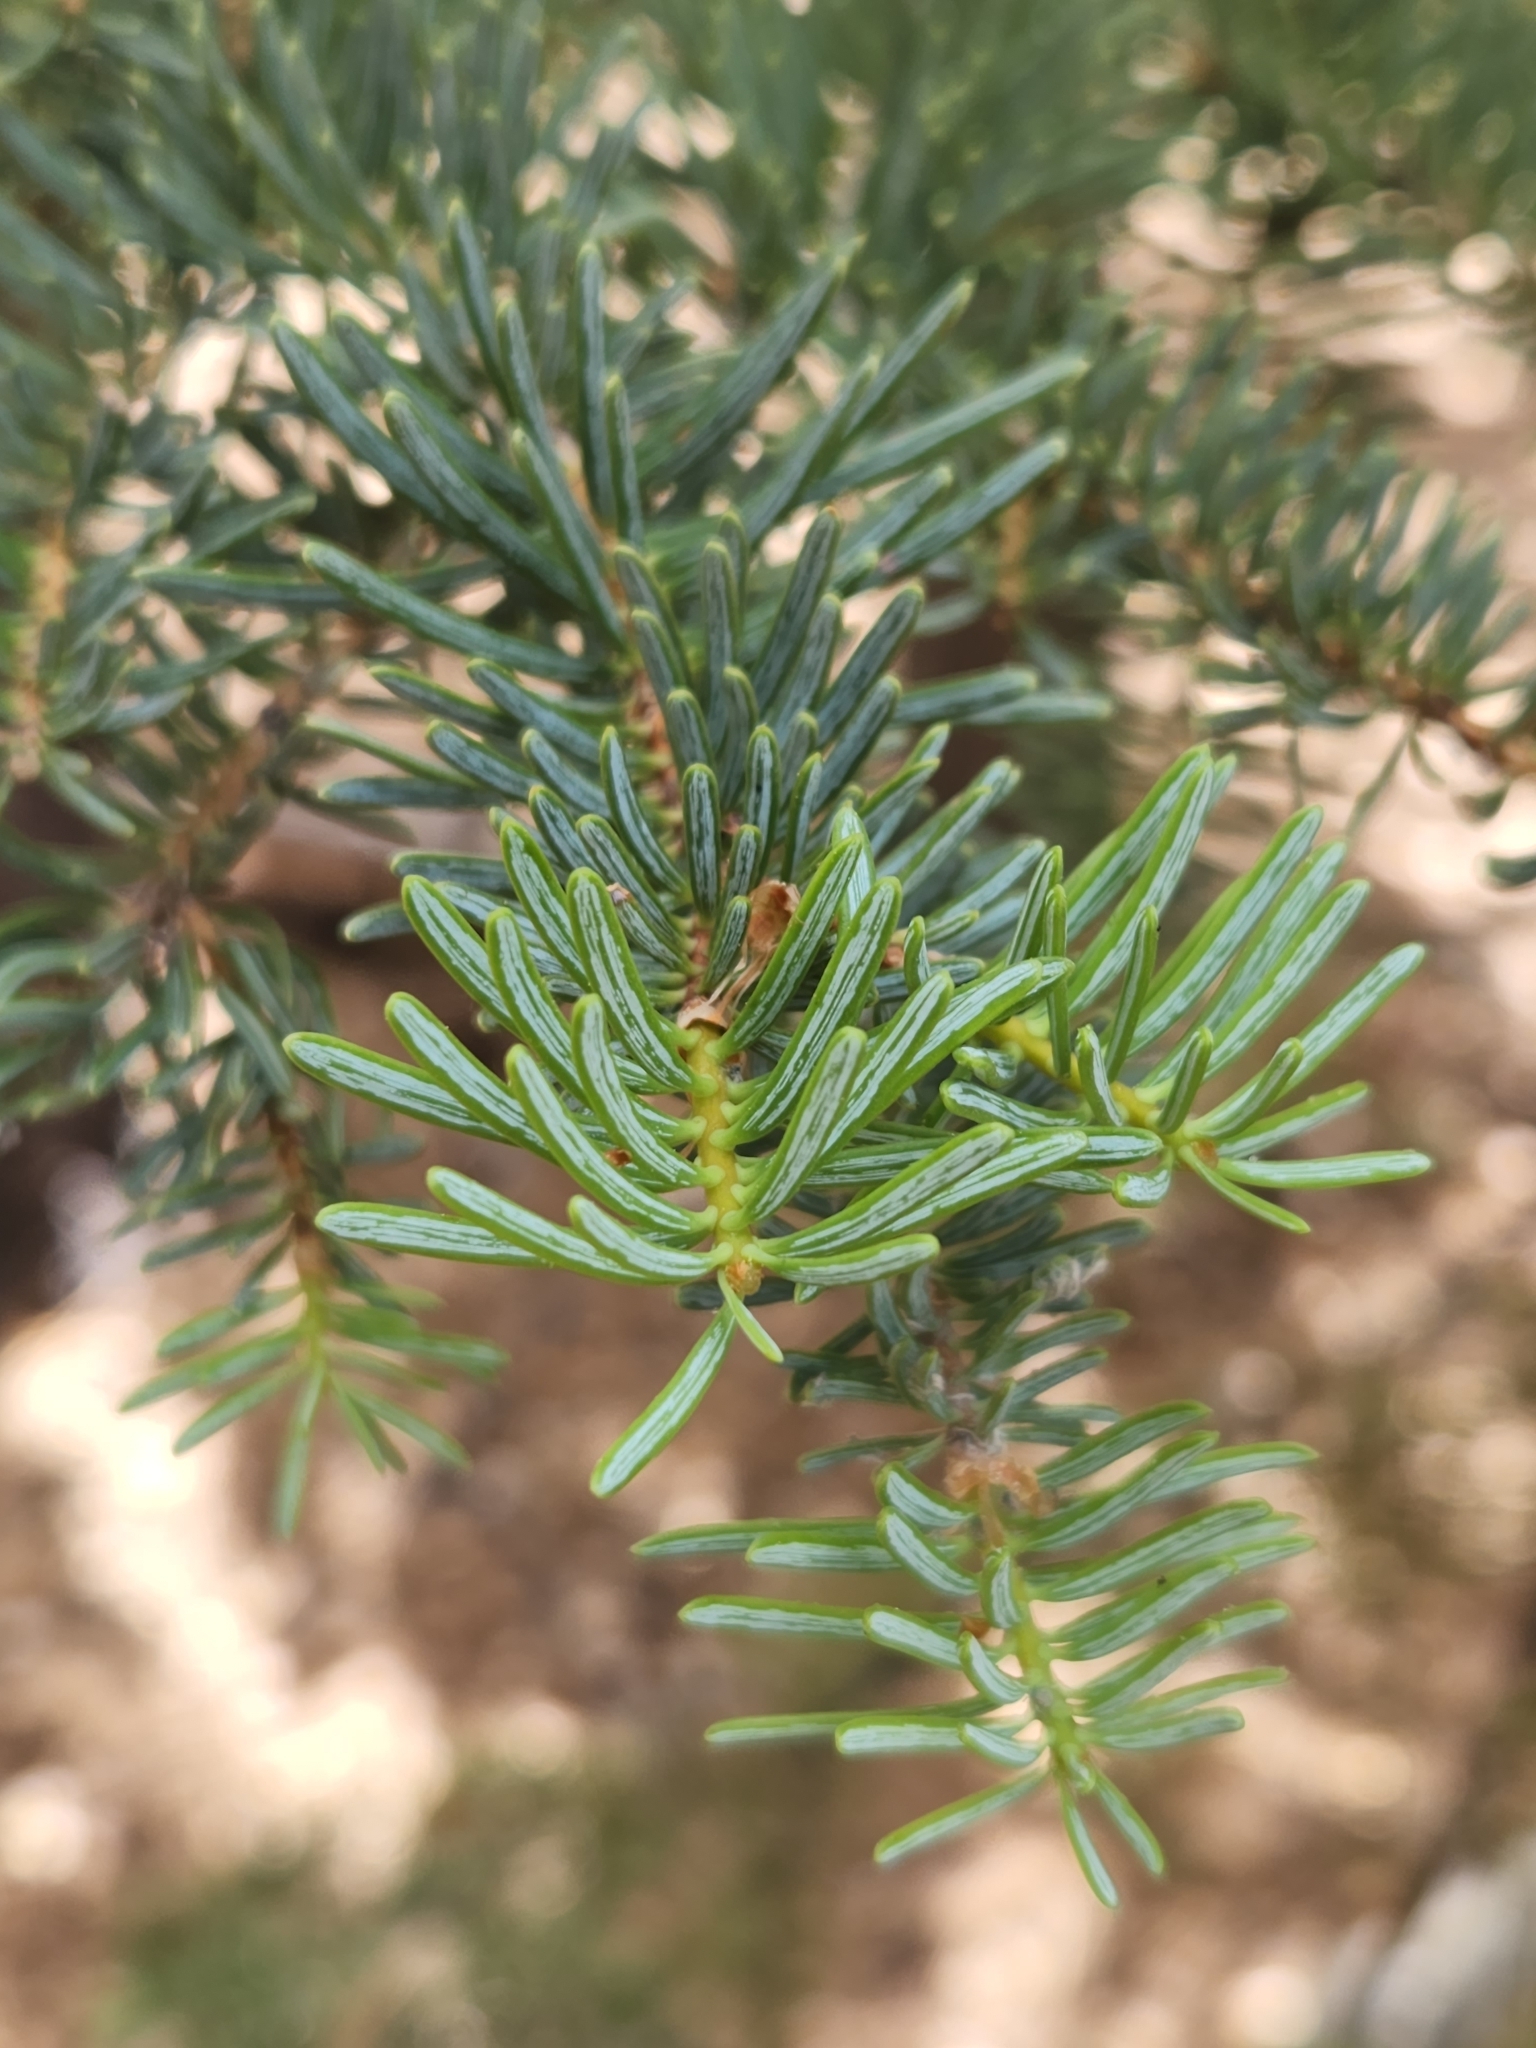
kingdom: Plantae
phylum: Tracheophyta
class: Pinopsida
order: Pinales
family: Pinaceae
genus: Abies
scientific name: Abies concolor
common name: Colorado fir
